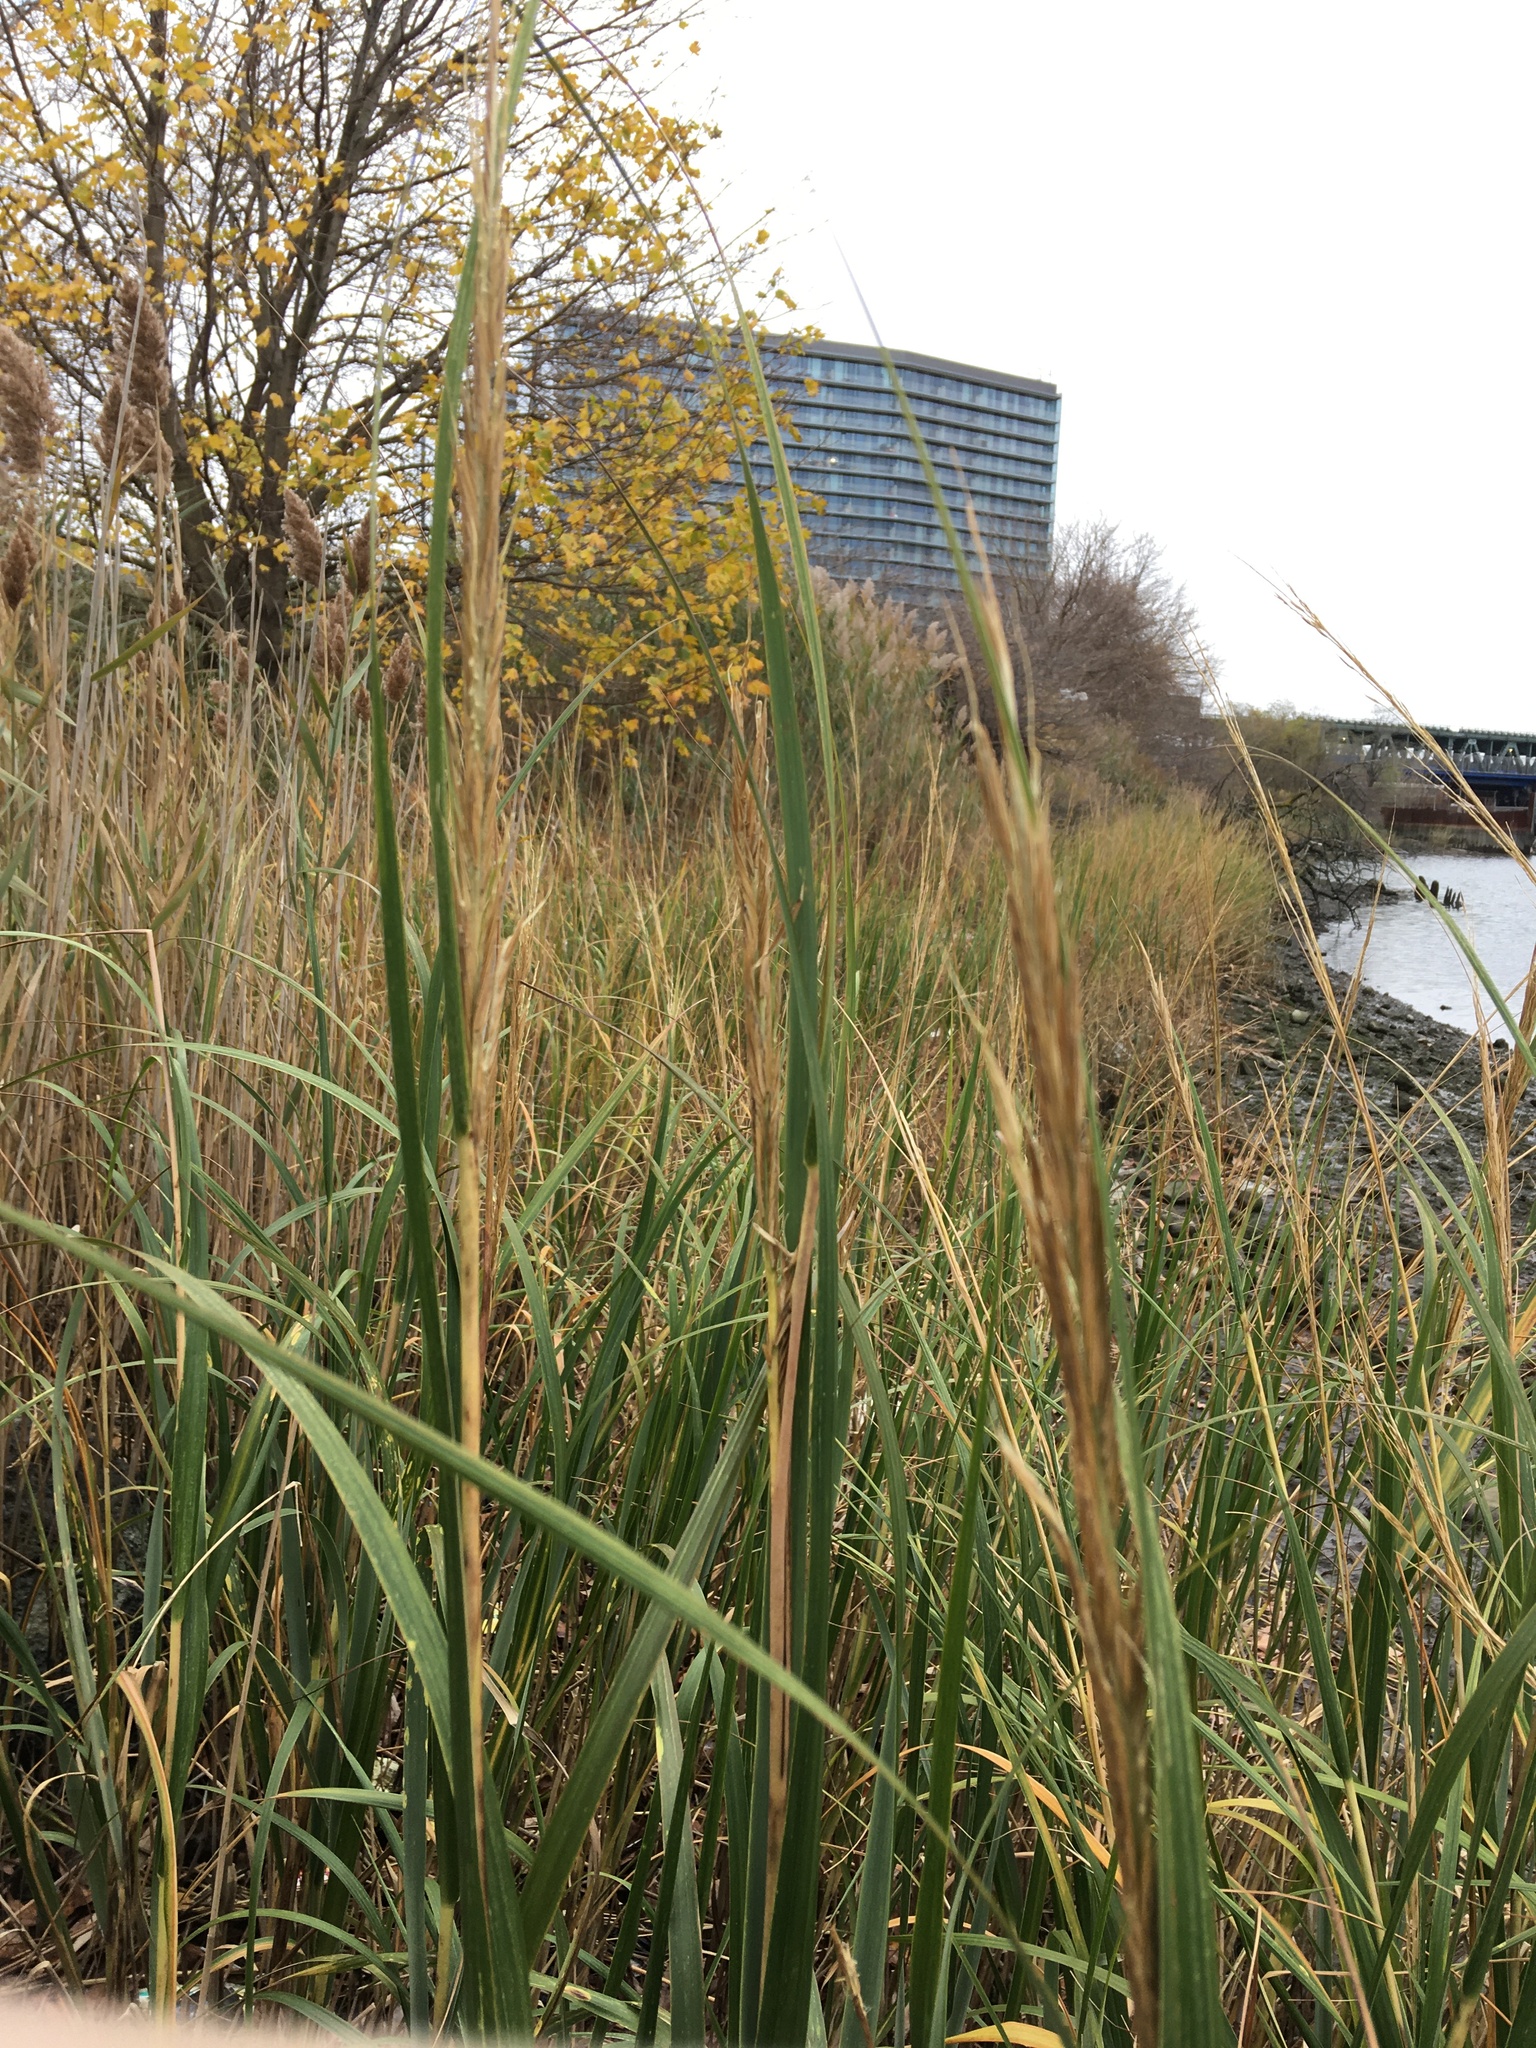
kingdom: Plantae
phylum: Tracheophyta
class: Liliopsida
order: Poales
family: Poaceae
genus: Sporobolus
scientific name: Sporobolus alterniflorus
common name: Atlantic cordgrass
